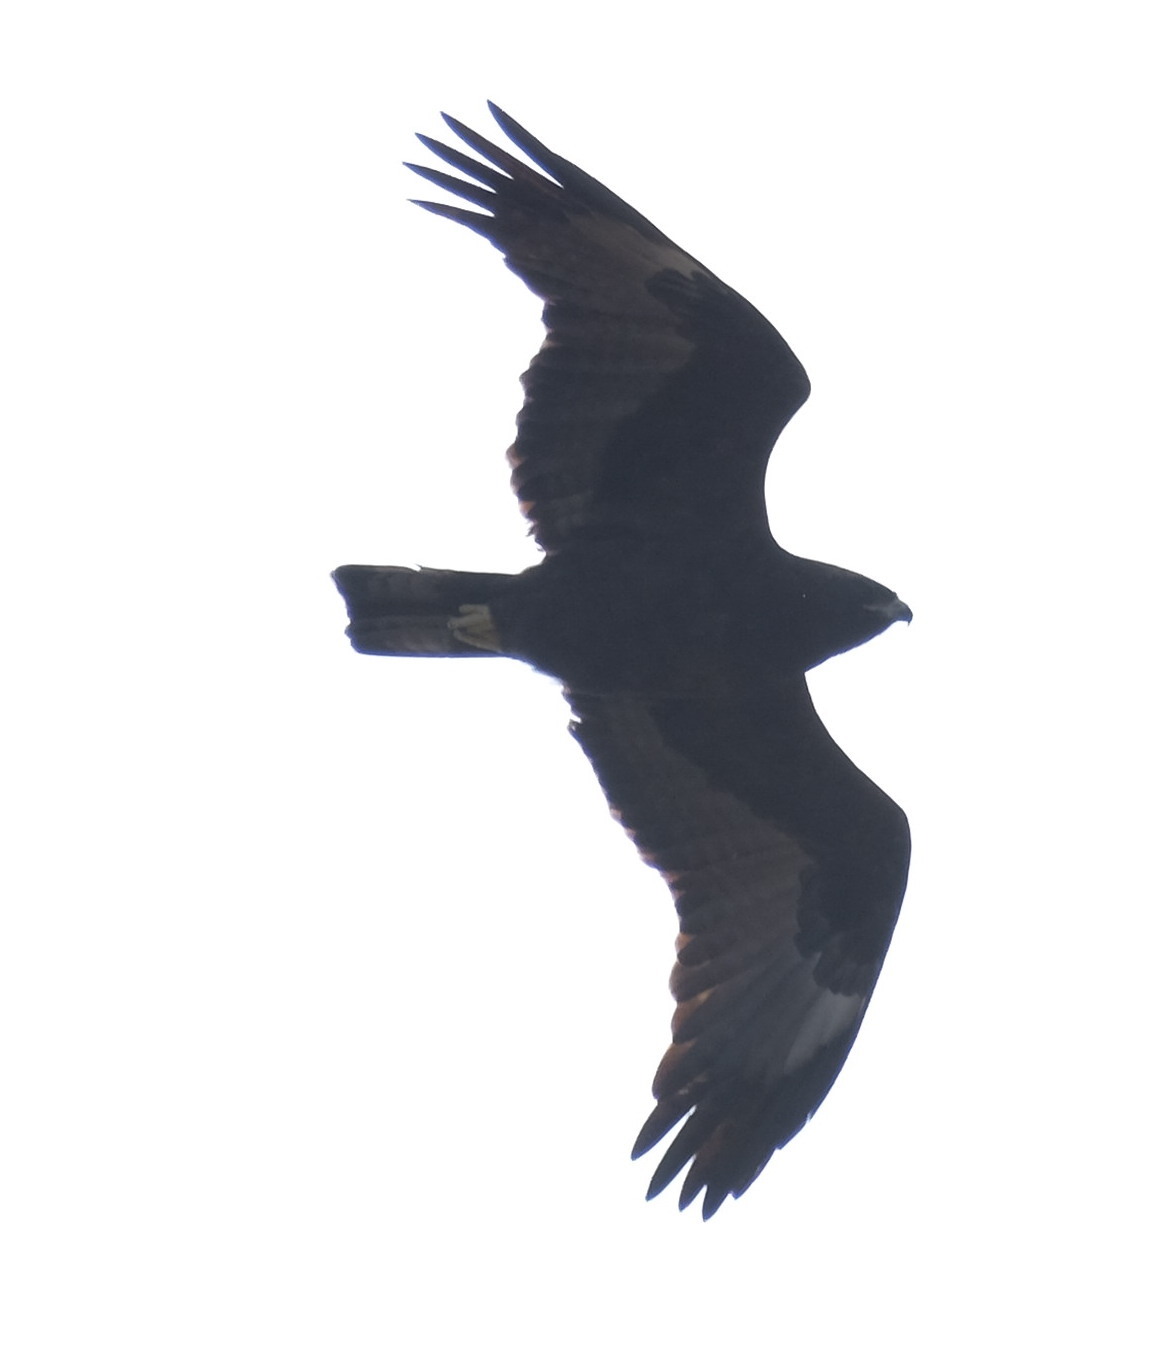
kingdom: Animalia
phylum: Chordata
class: Aves
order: Accipitriformes
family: Accipitridae
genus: Hieraaetus
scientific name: Hieraaetus wahlbergi
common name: Wahlberg's eagle
